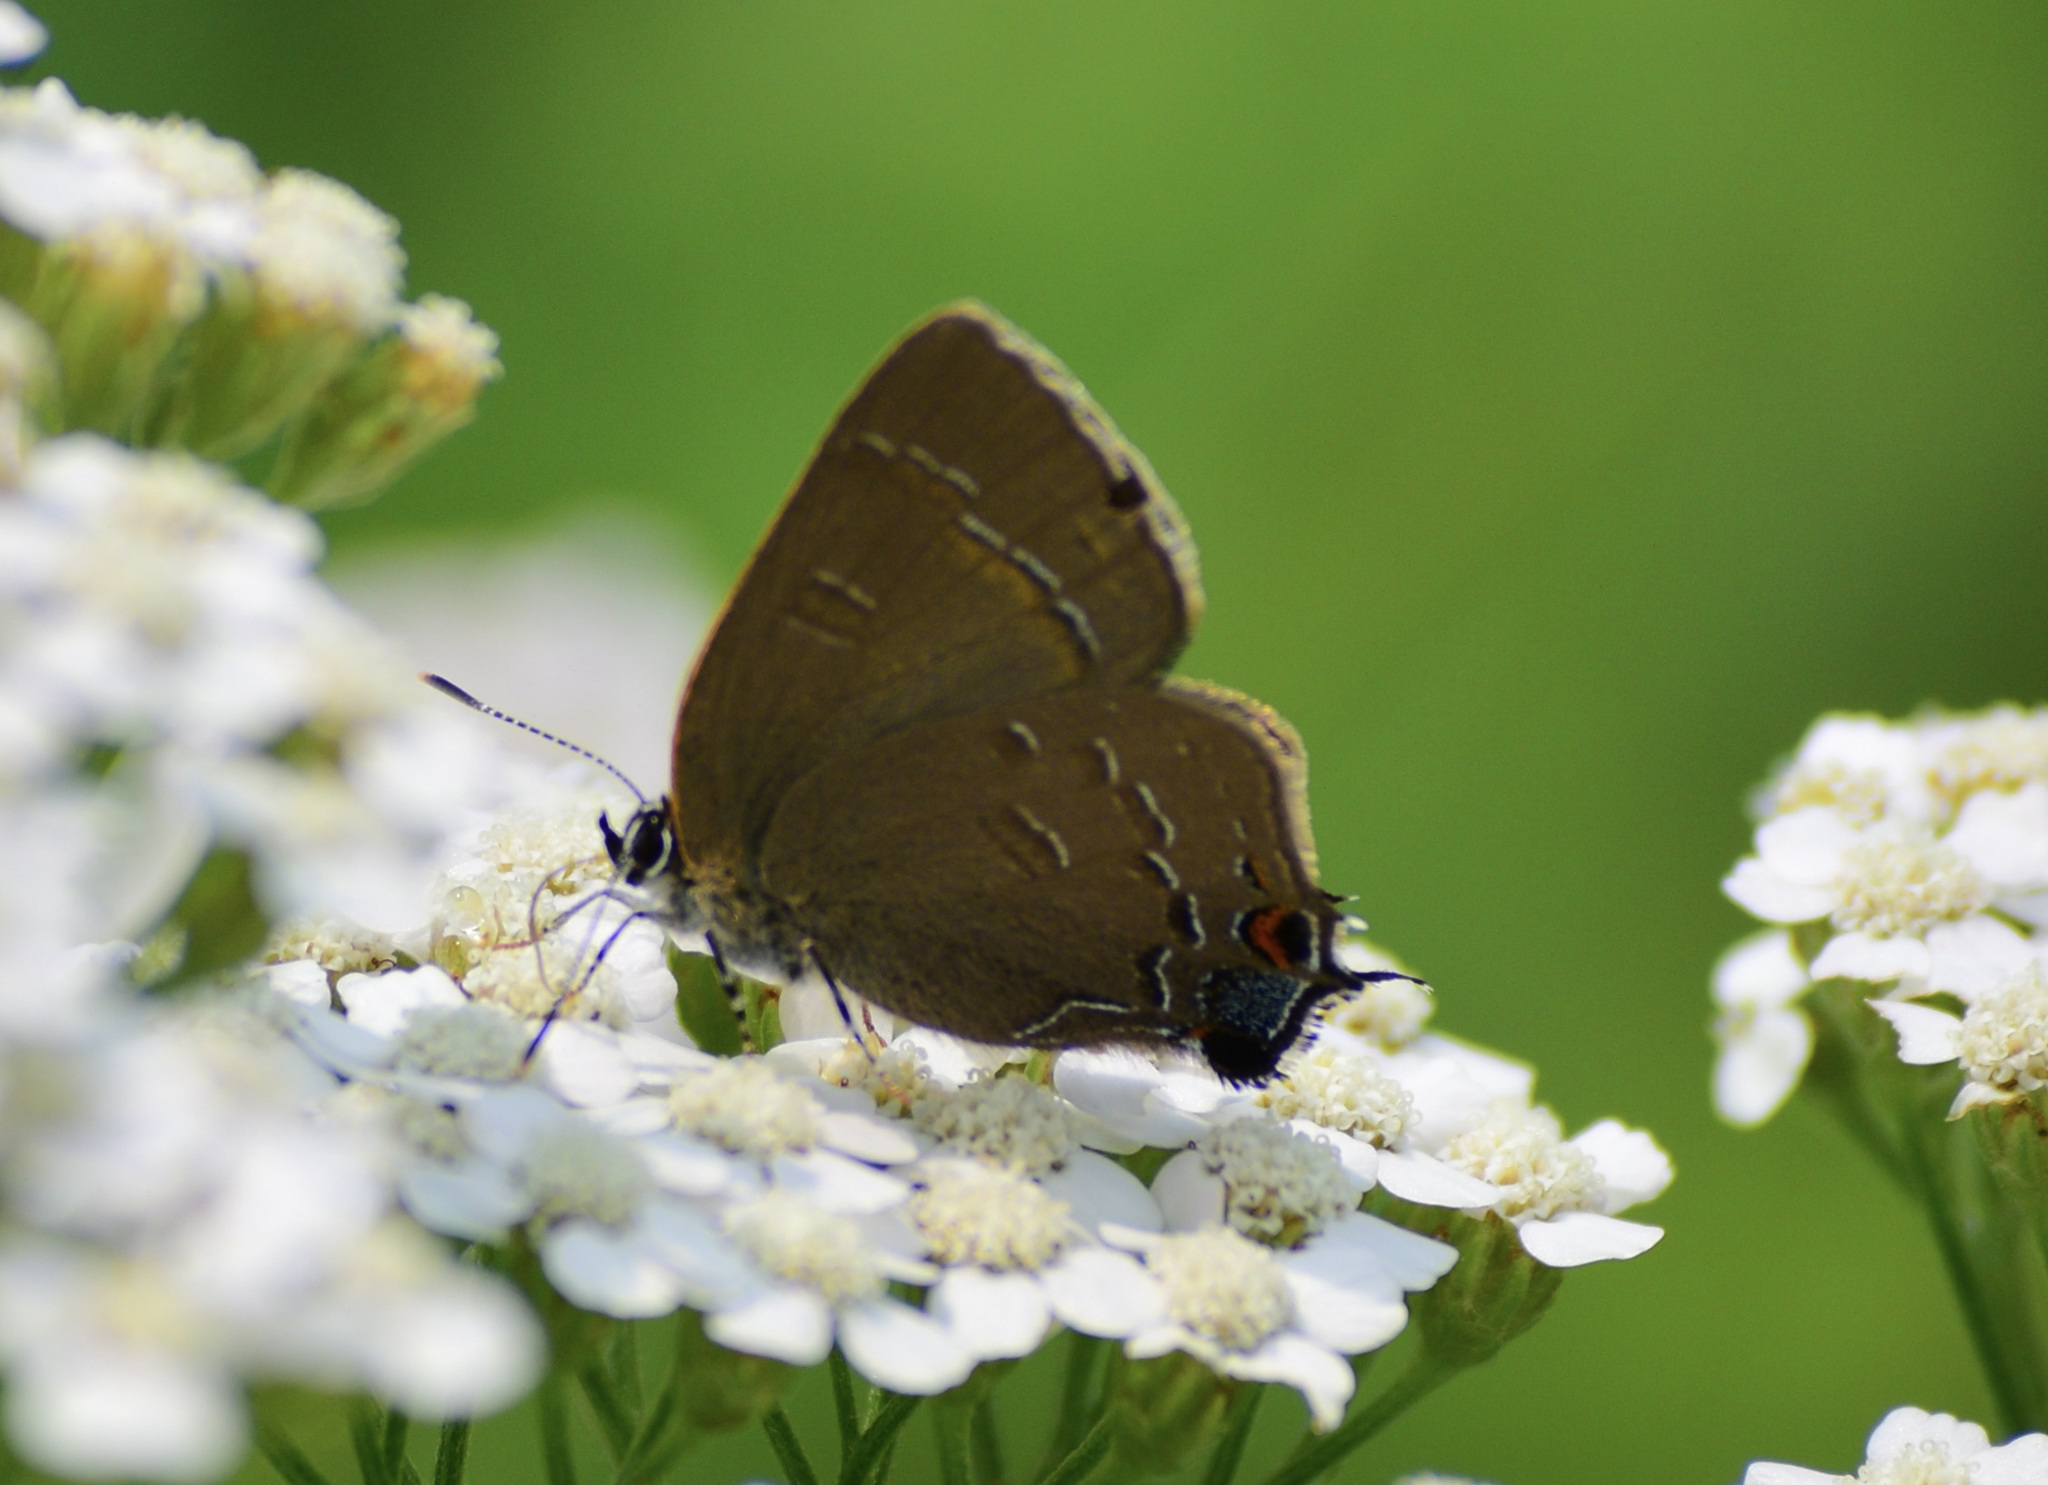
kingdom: Animalia
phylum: Arthropoda
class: Insecta
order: Lepidoptera
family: Lycaenidae
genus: Satyrium
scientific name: Satyrium calanus
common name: Banded hairstreak
